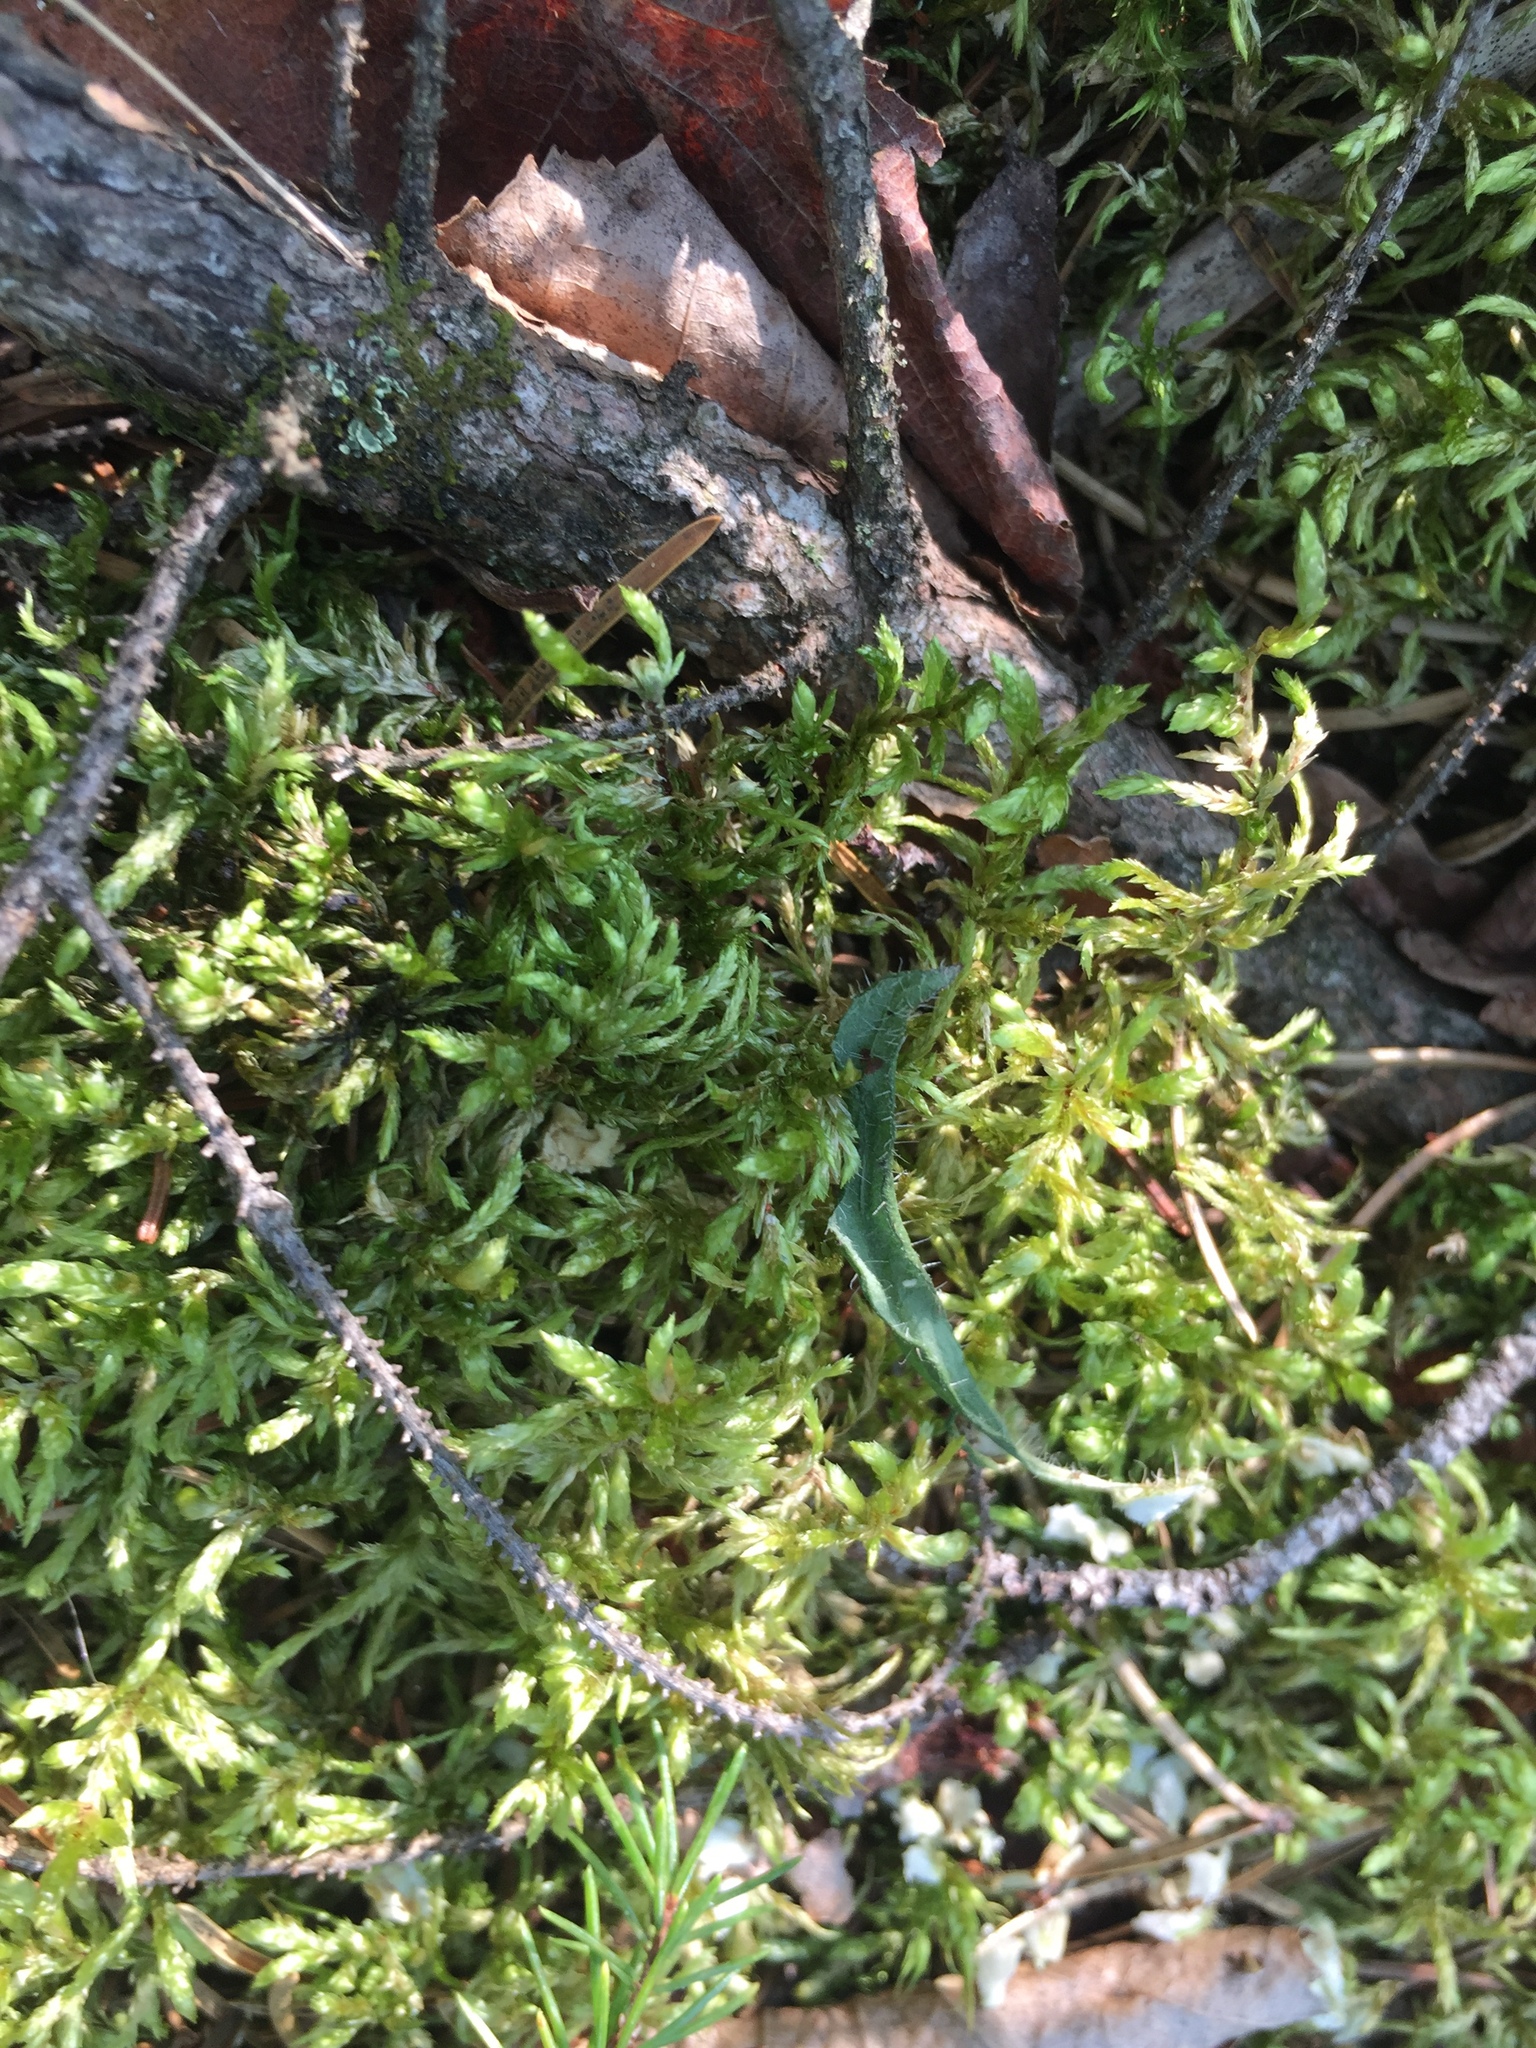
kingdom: Plantae
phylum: Bryophyta
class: Bryopsida
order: Hypnales
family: Hylocomiaceae
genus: Pleurozium
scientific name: Pleurozium schreberi
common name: Red-stemmed feather moss
